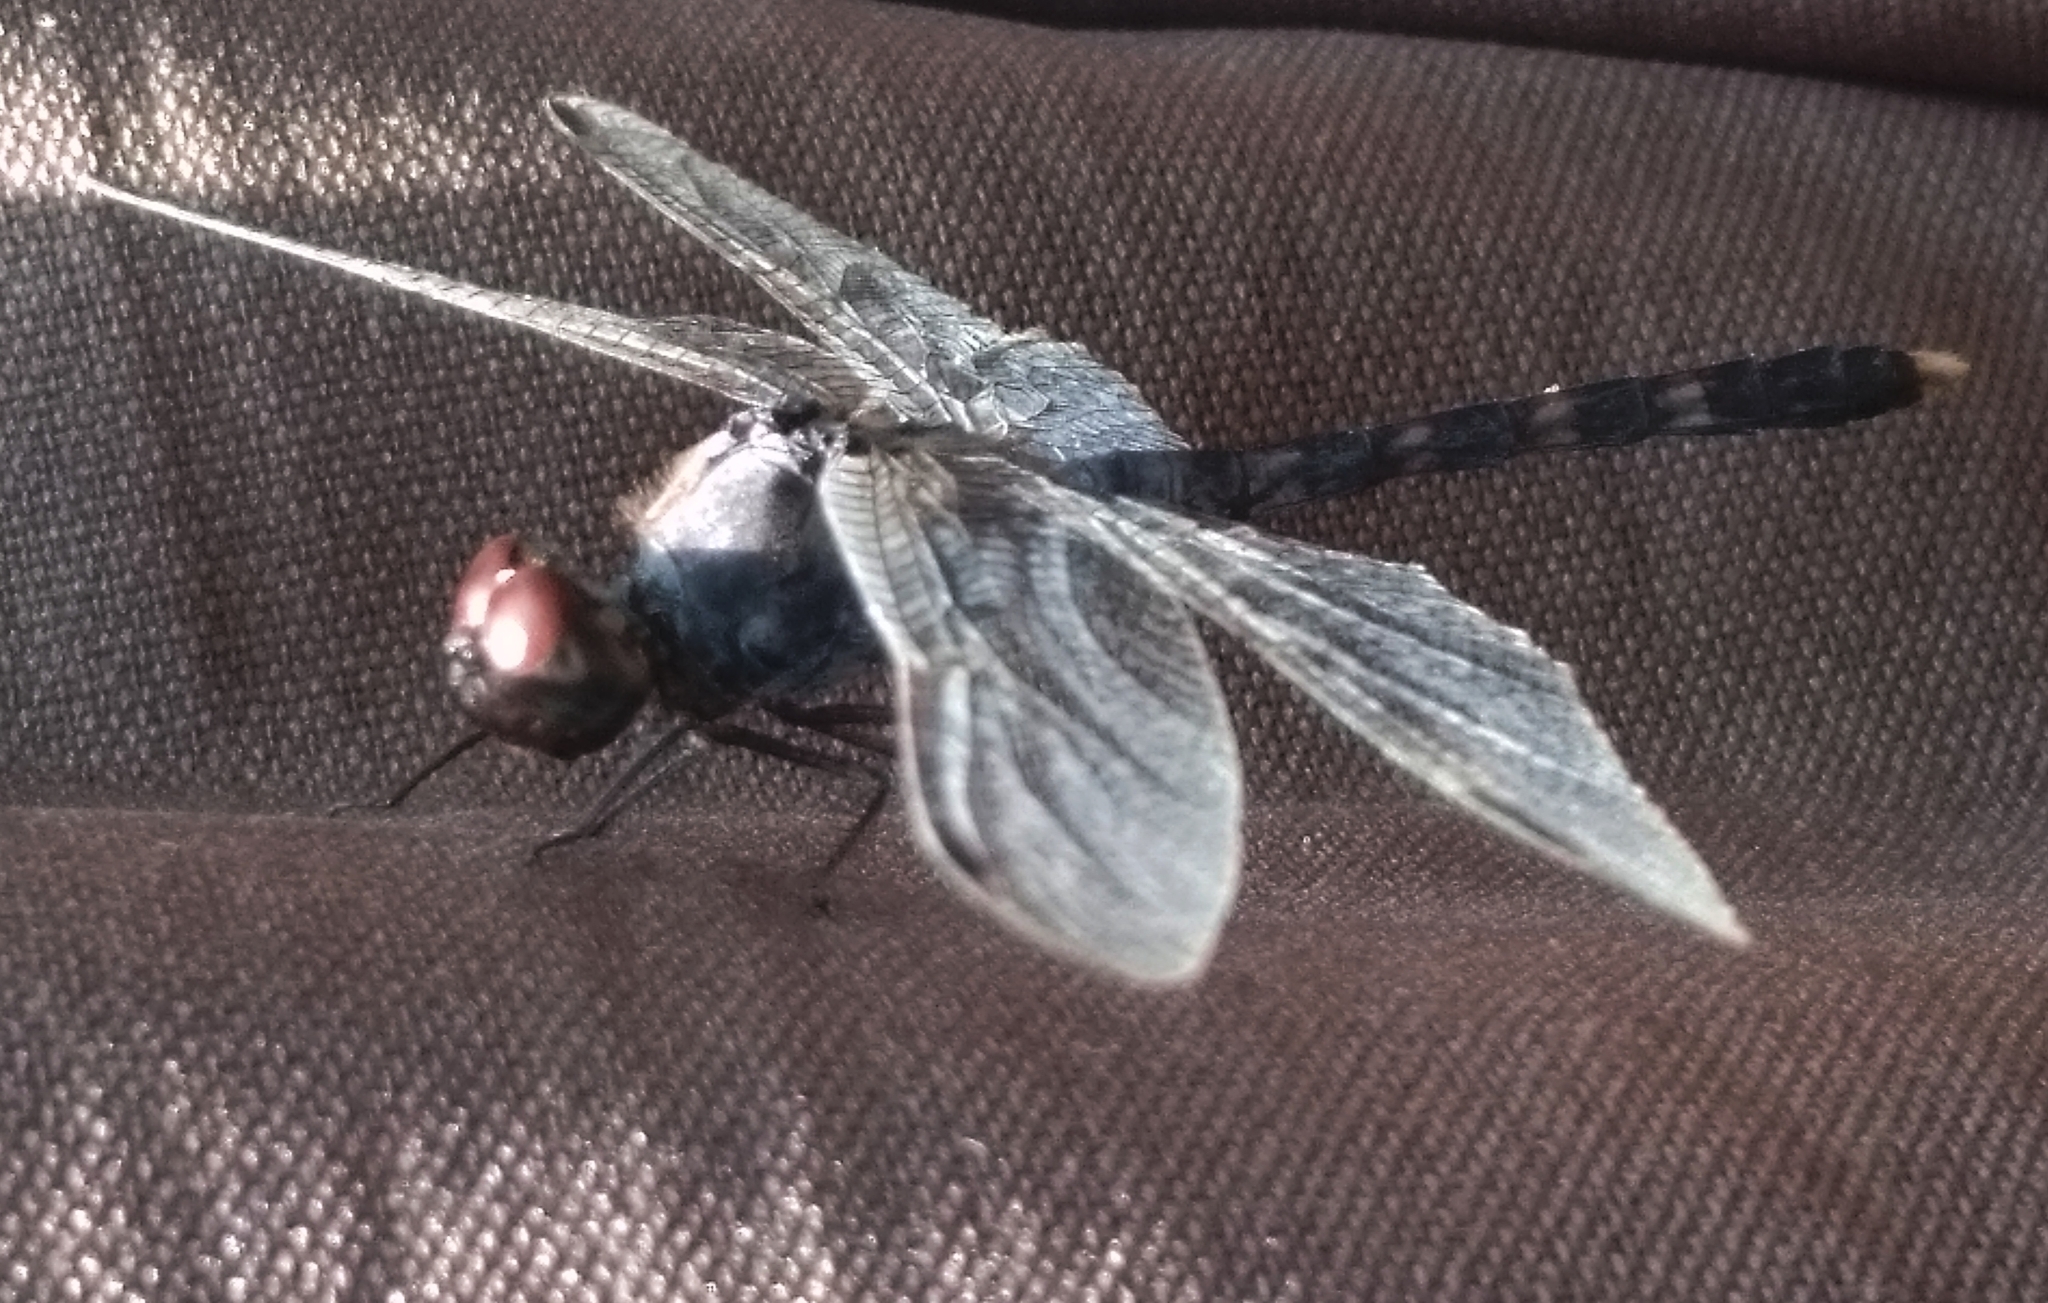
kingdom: Animalia
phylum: Arthropoda
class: Insecta
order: Odonata
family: Libellulidae
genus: Bradinopyga
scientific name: Bradinopyga geminata
